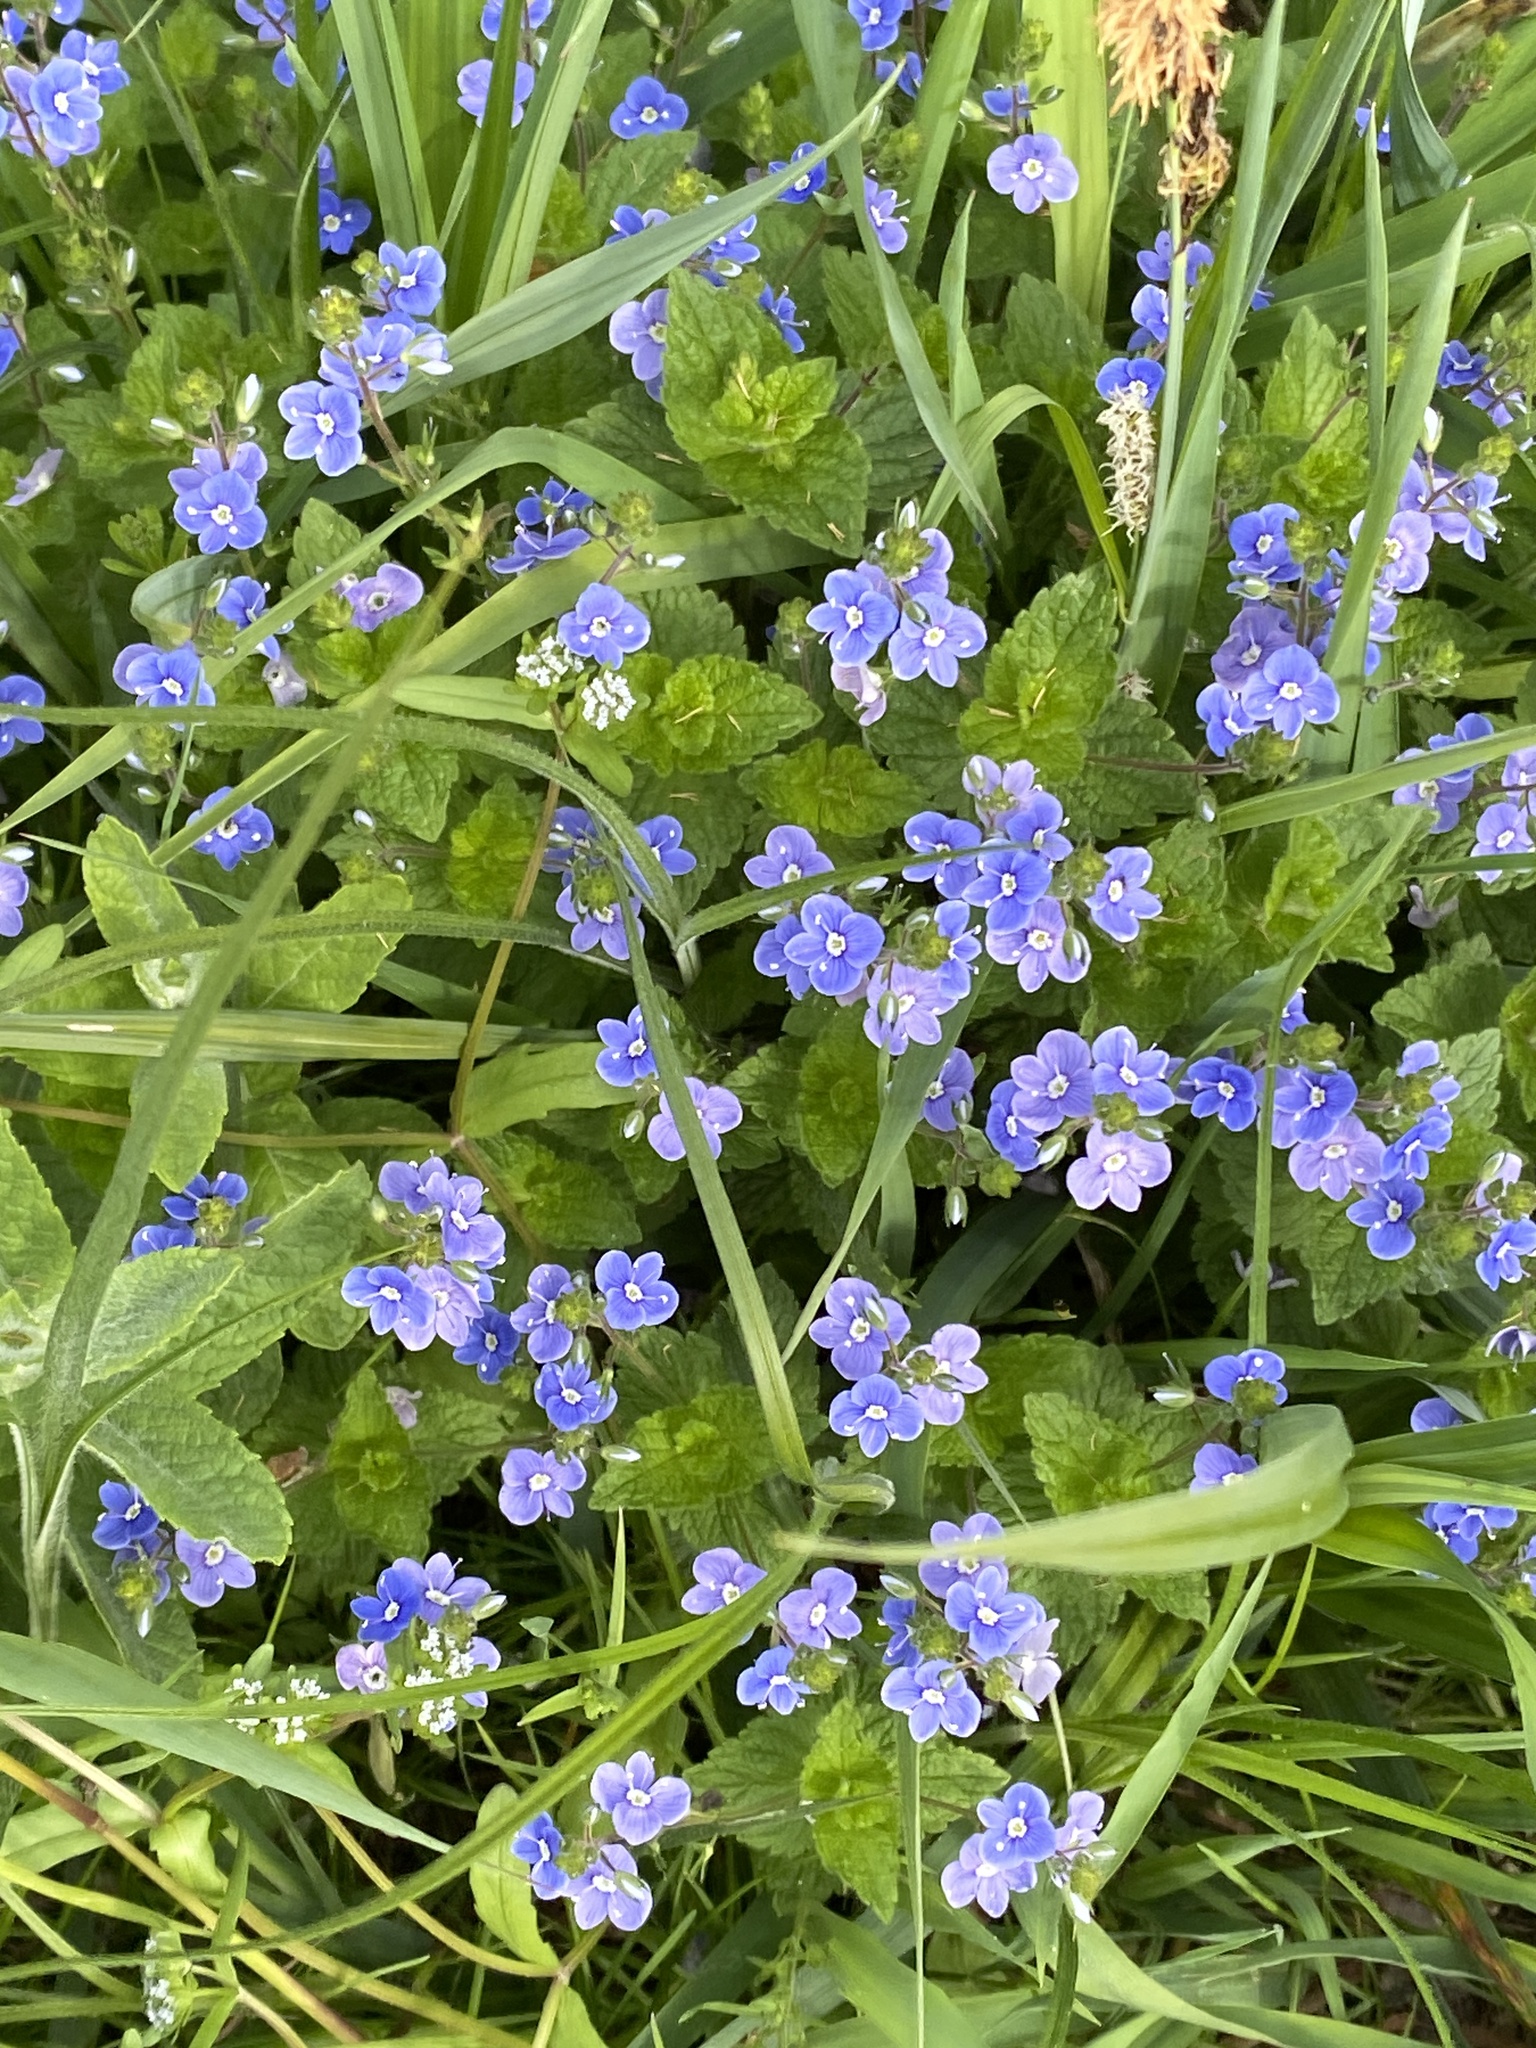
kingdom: Plantae
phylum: Tracheophyta
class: Magnoliopsida
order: Lamiales
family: Plantaginaceae
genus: Veronica
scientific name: Veronica chamaedrys
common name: Germander speedwell
